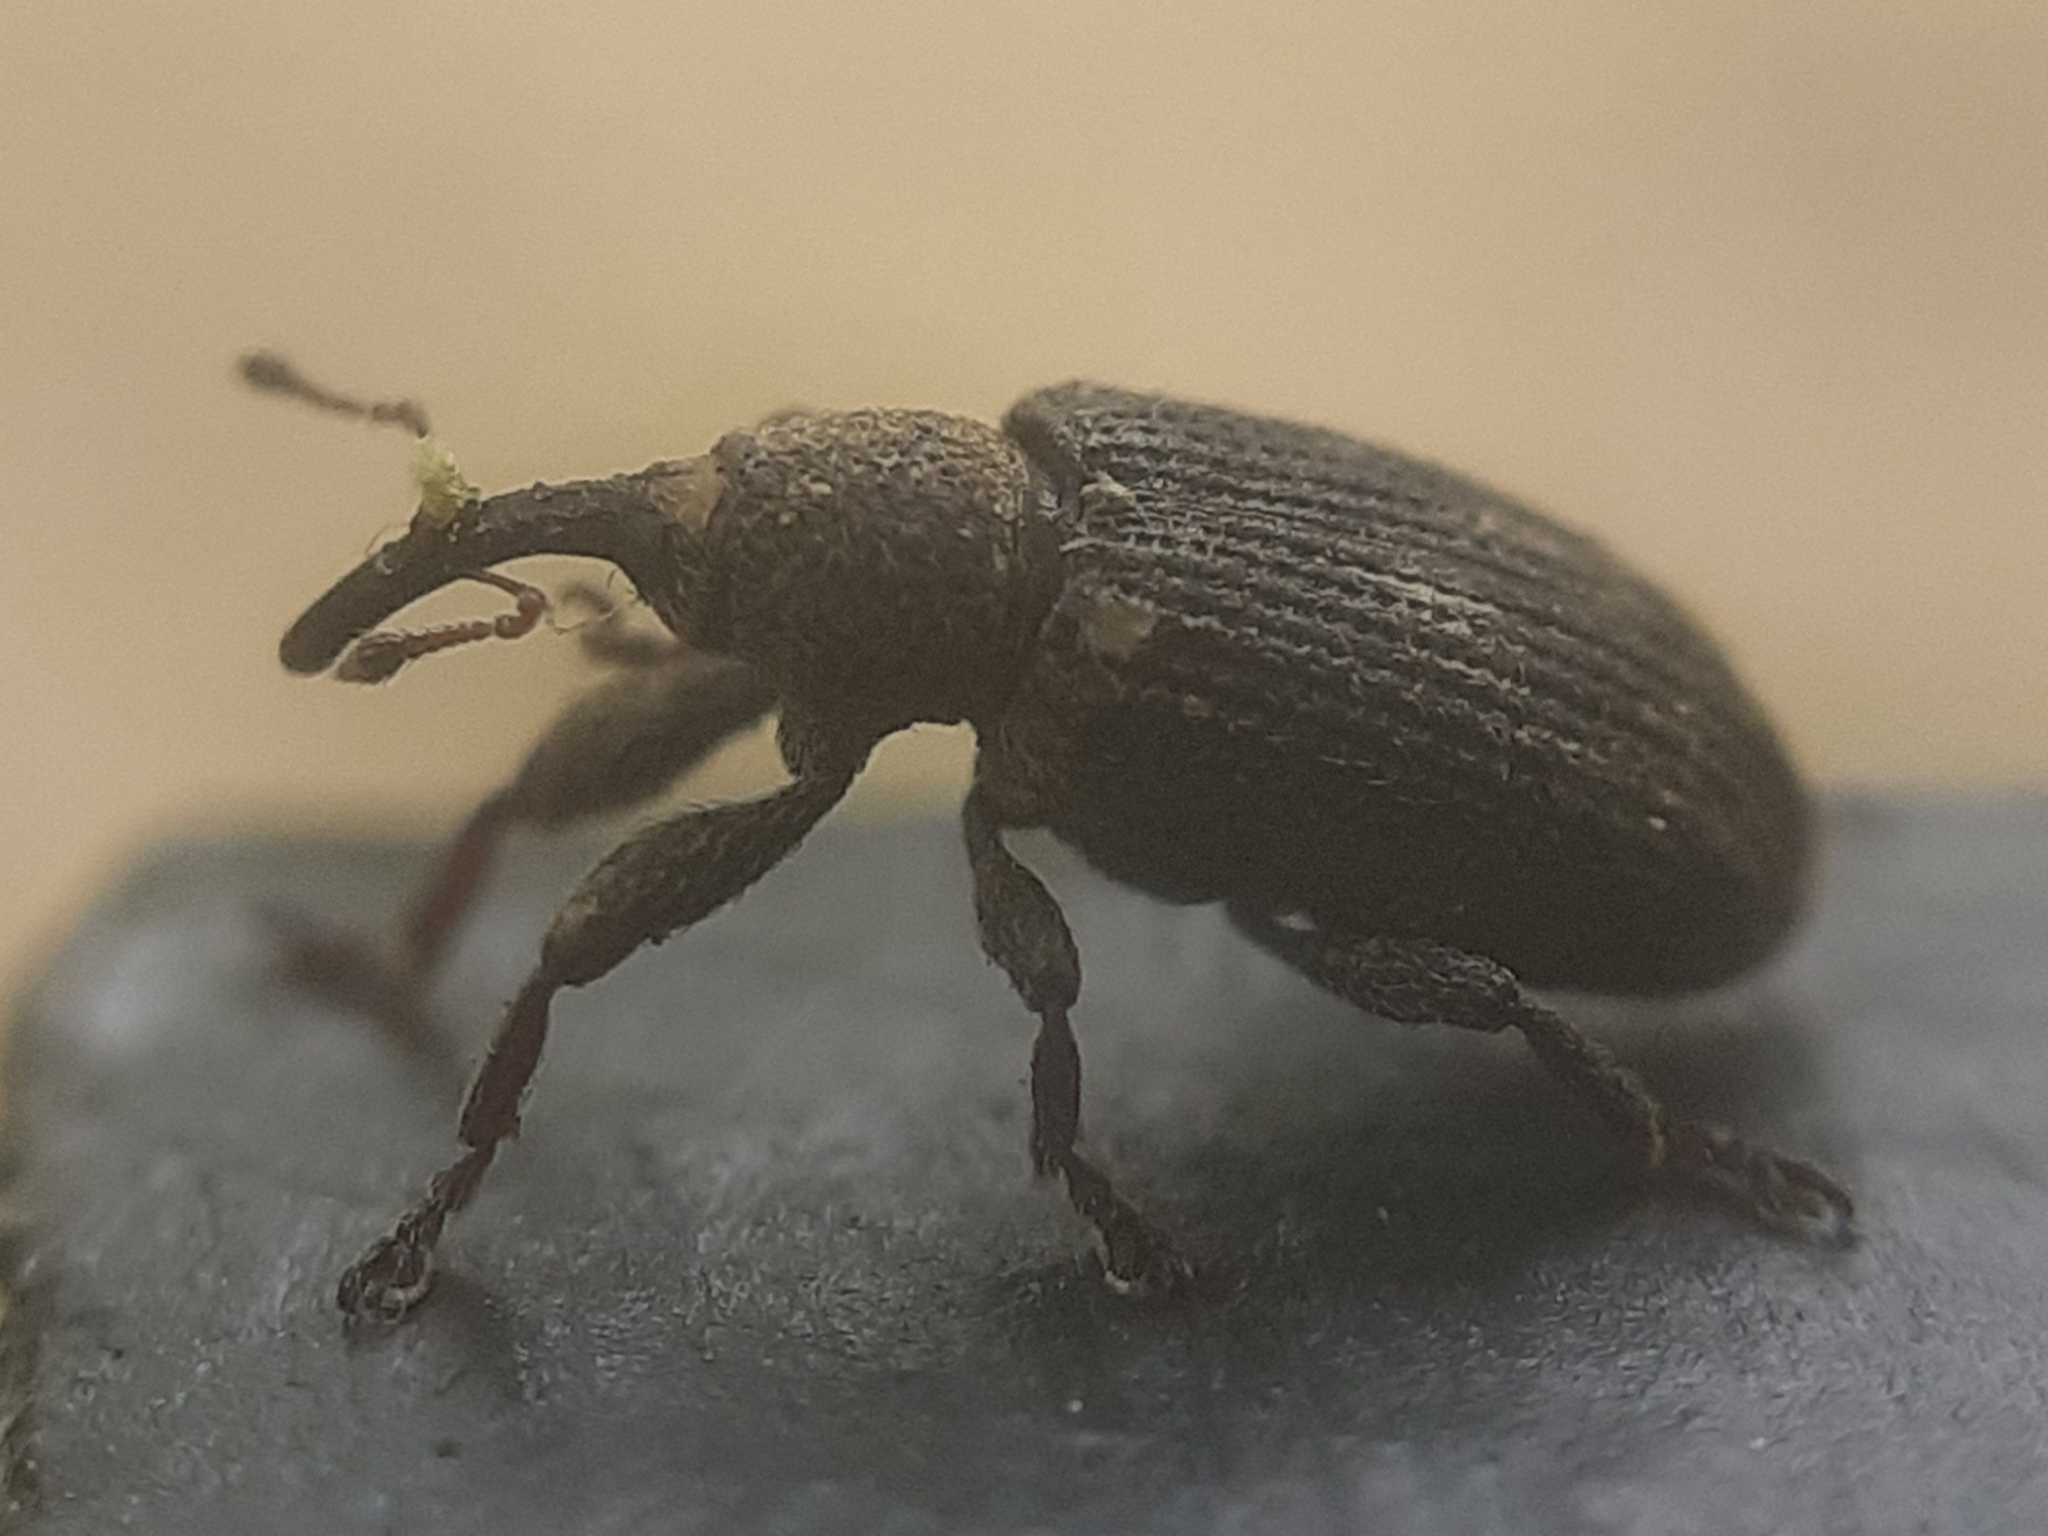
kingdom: Animalia
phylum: Arthropoda
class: Insecta
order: Coleoptera
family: Curculionidae
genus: Bradybatus
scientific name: Bradybatus kellneri
